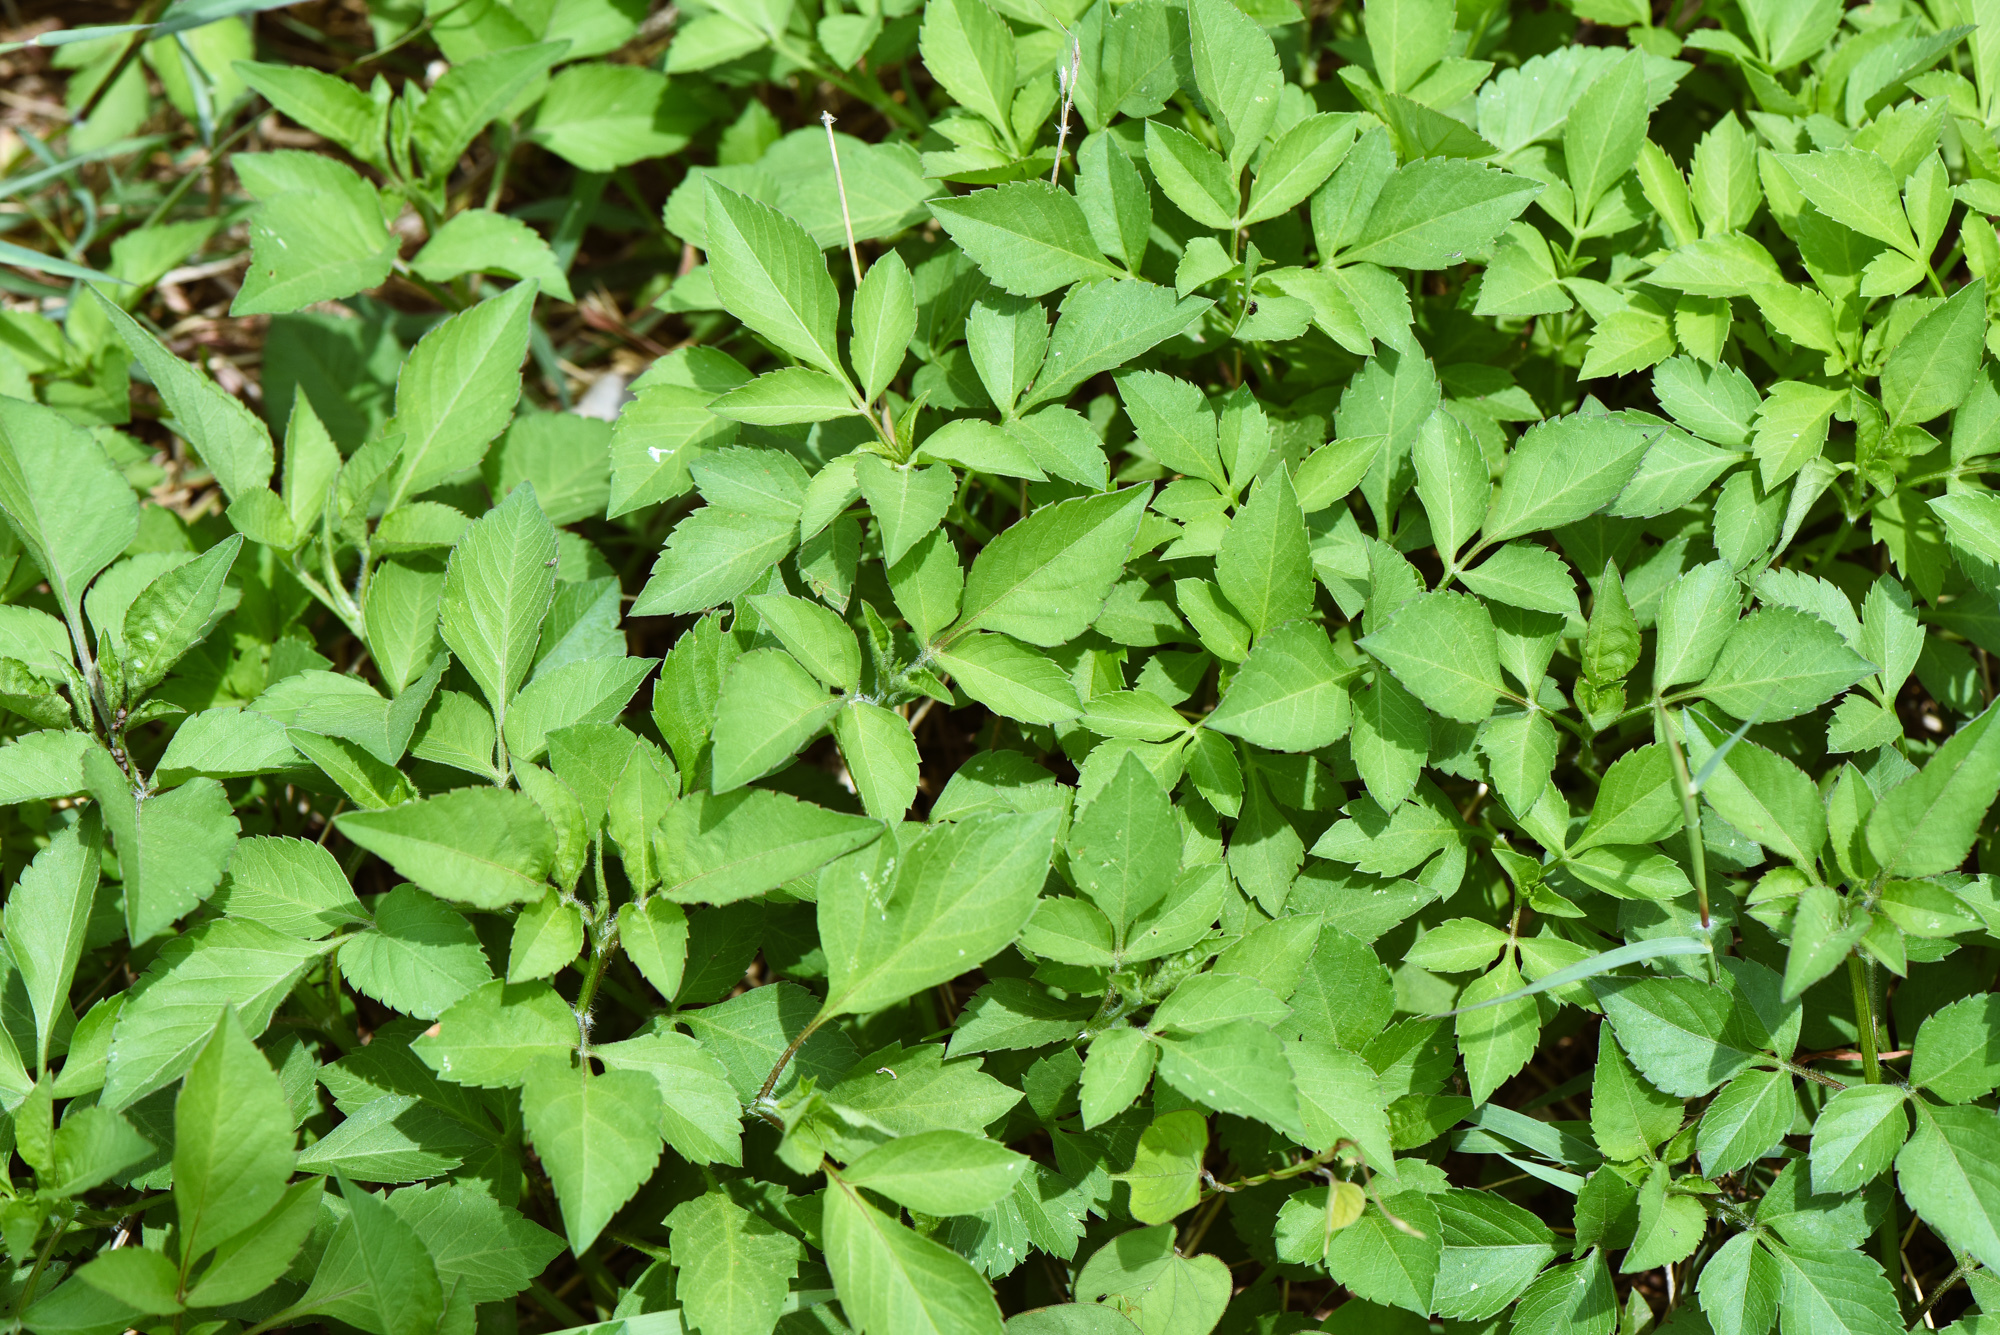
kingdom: Plantae
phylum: Tracheophyta
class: Magnoliopsida
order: Asterales
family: Asteraceae
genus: Bidens
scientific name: Bidens alba
